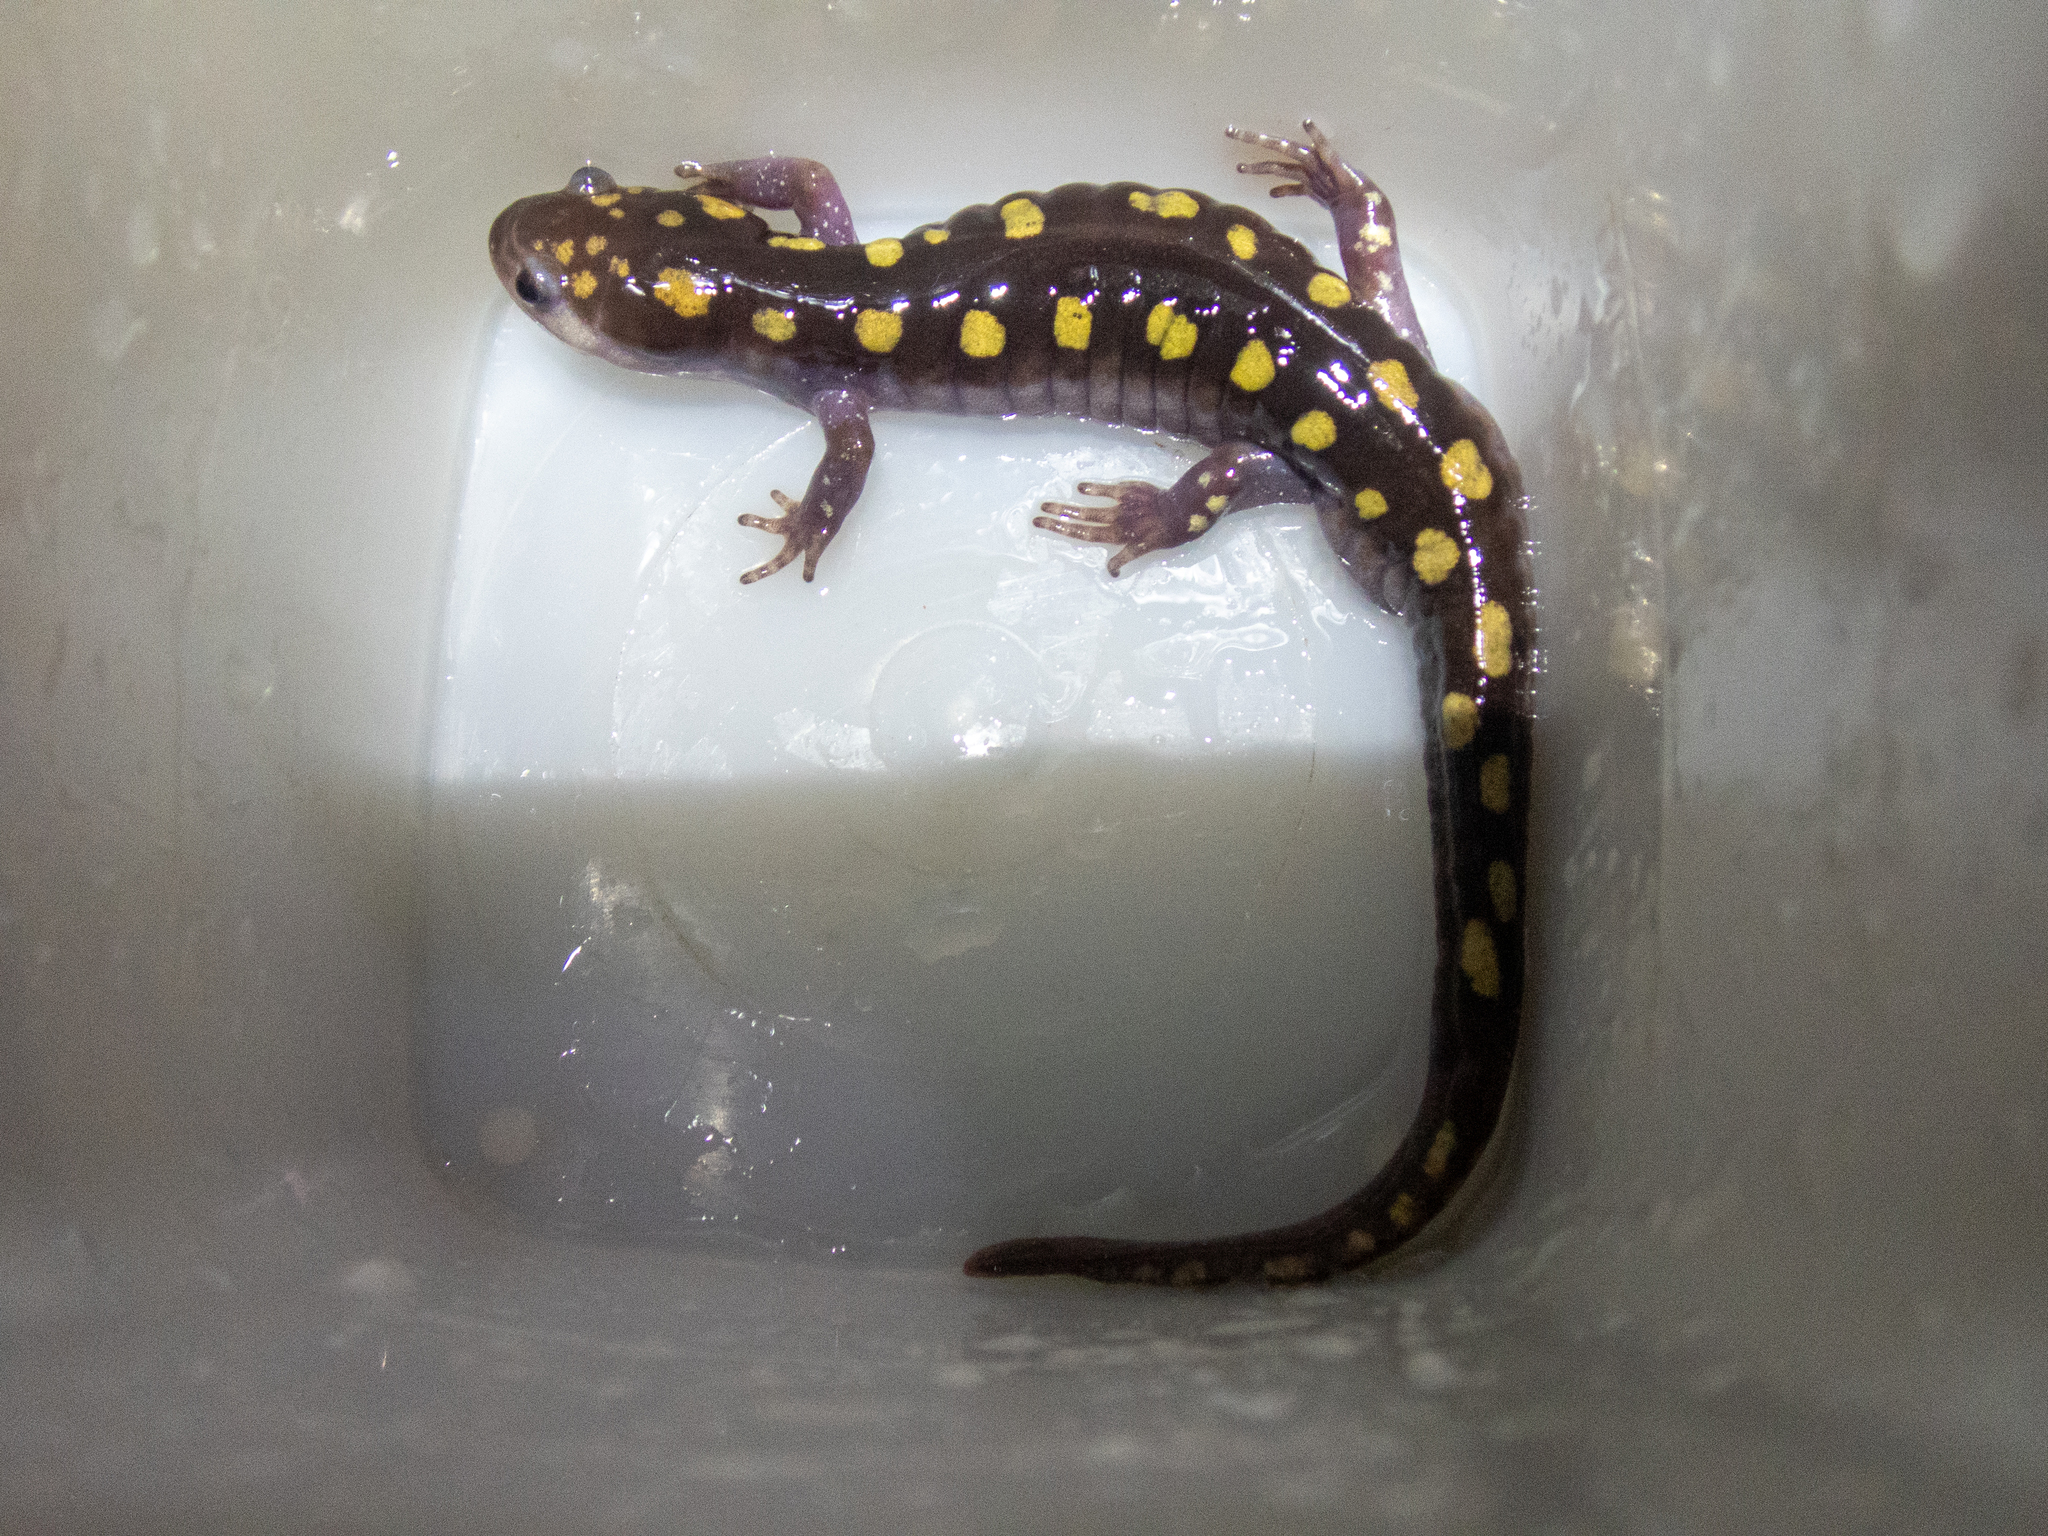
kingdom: Animalia
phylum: Chordata
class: Amphibia
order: Caudata
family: Ambystomatidae
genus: Ambystoma
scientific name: Ambystoma maculatum
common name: Spotted salamander
